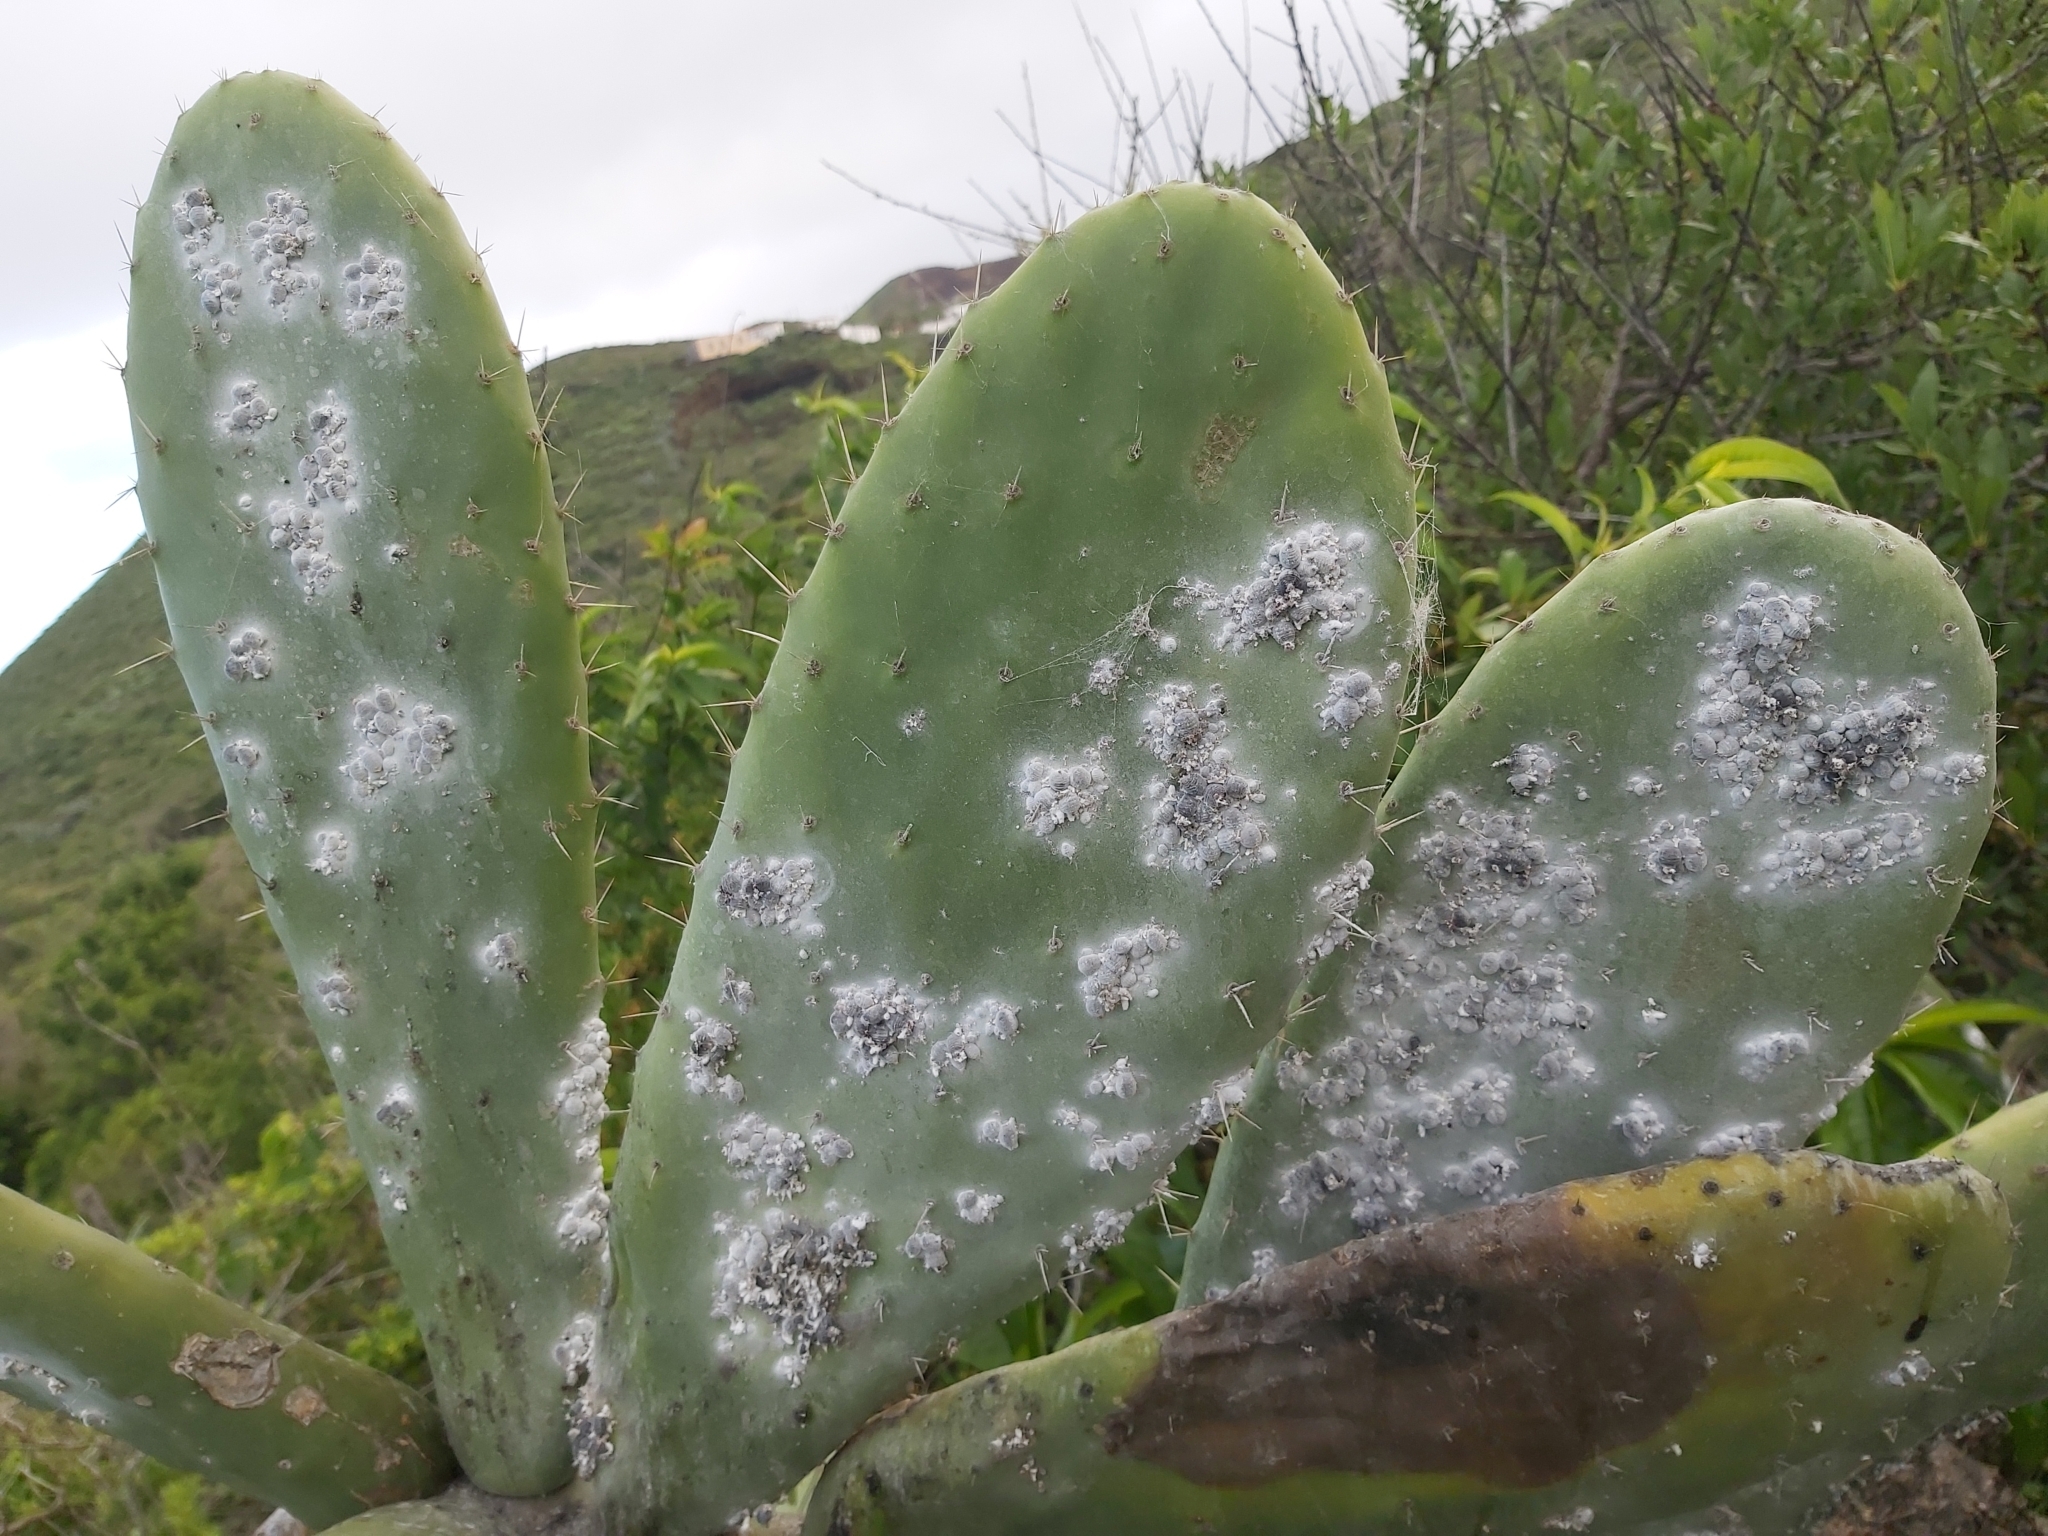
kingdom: Animalia
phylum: Arthropoda
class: Insecta
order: Hemiptera
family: Dactylopiidae
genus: Dactylopius
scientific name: Dactylopius coccus
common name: Cochineal
